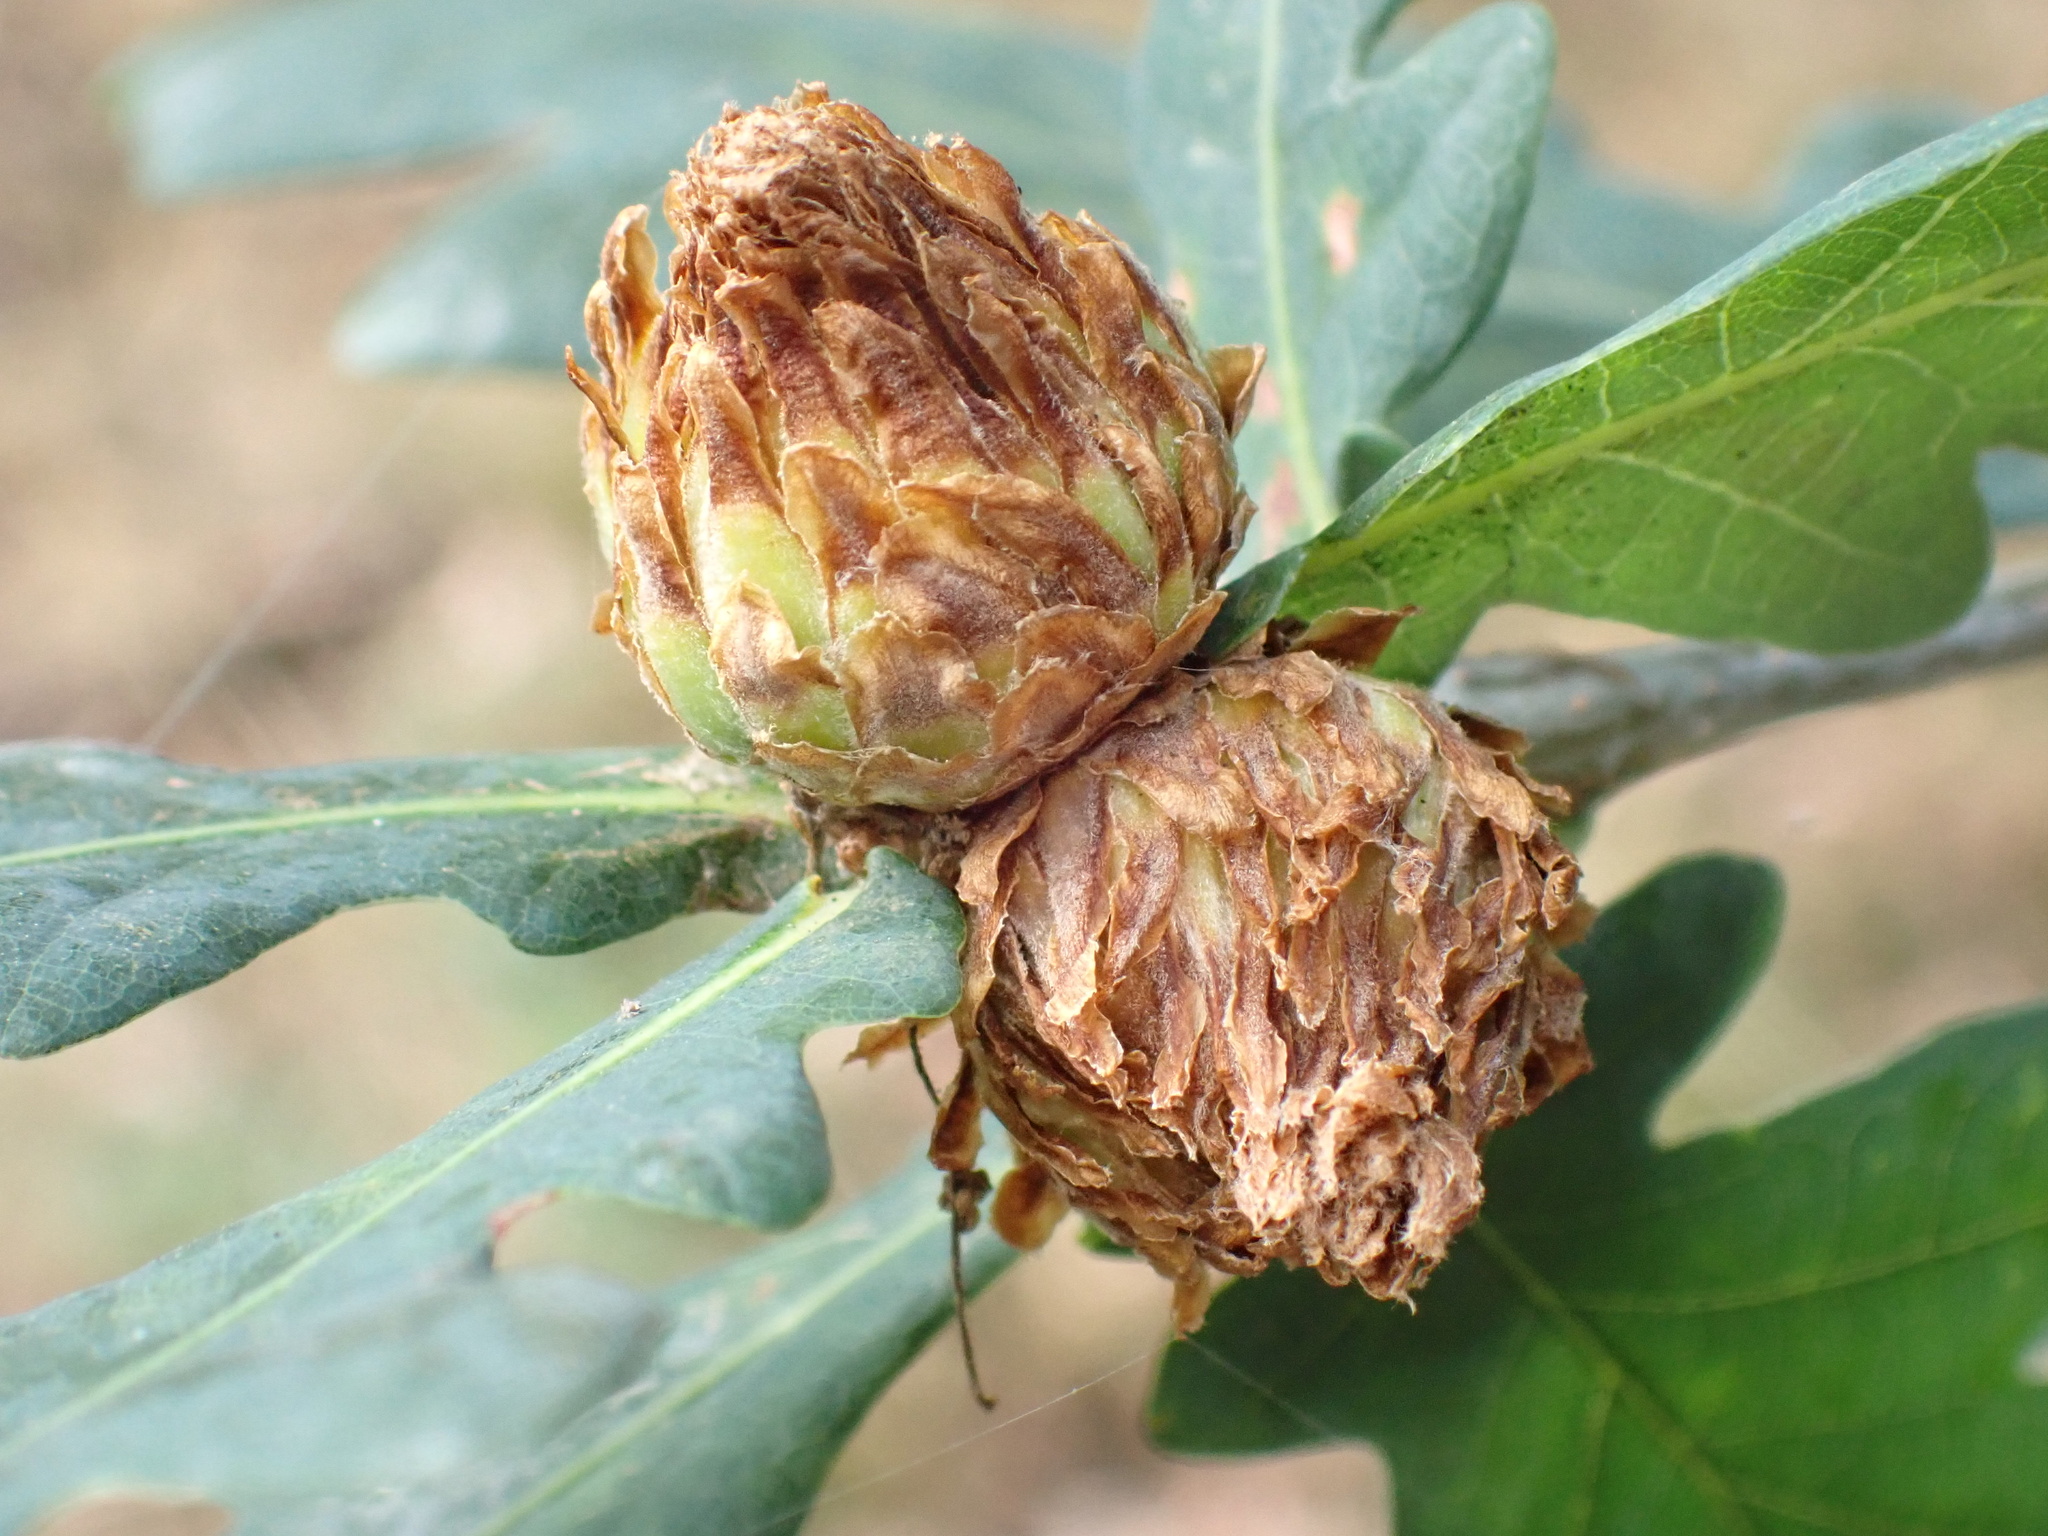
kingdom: Animalia
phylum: Arthropoda
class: Insecta
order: Hymenoptera
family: Cynipidae
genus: Andricus
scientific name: Andricus foecundatrix
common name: Artichoke gall
